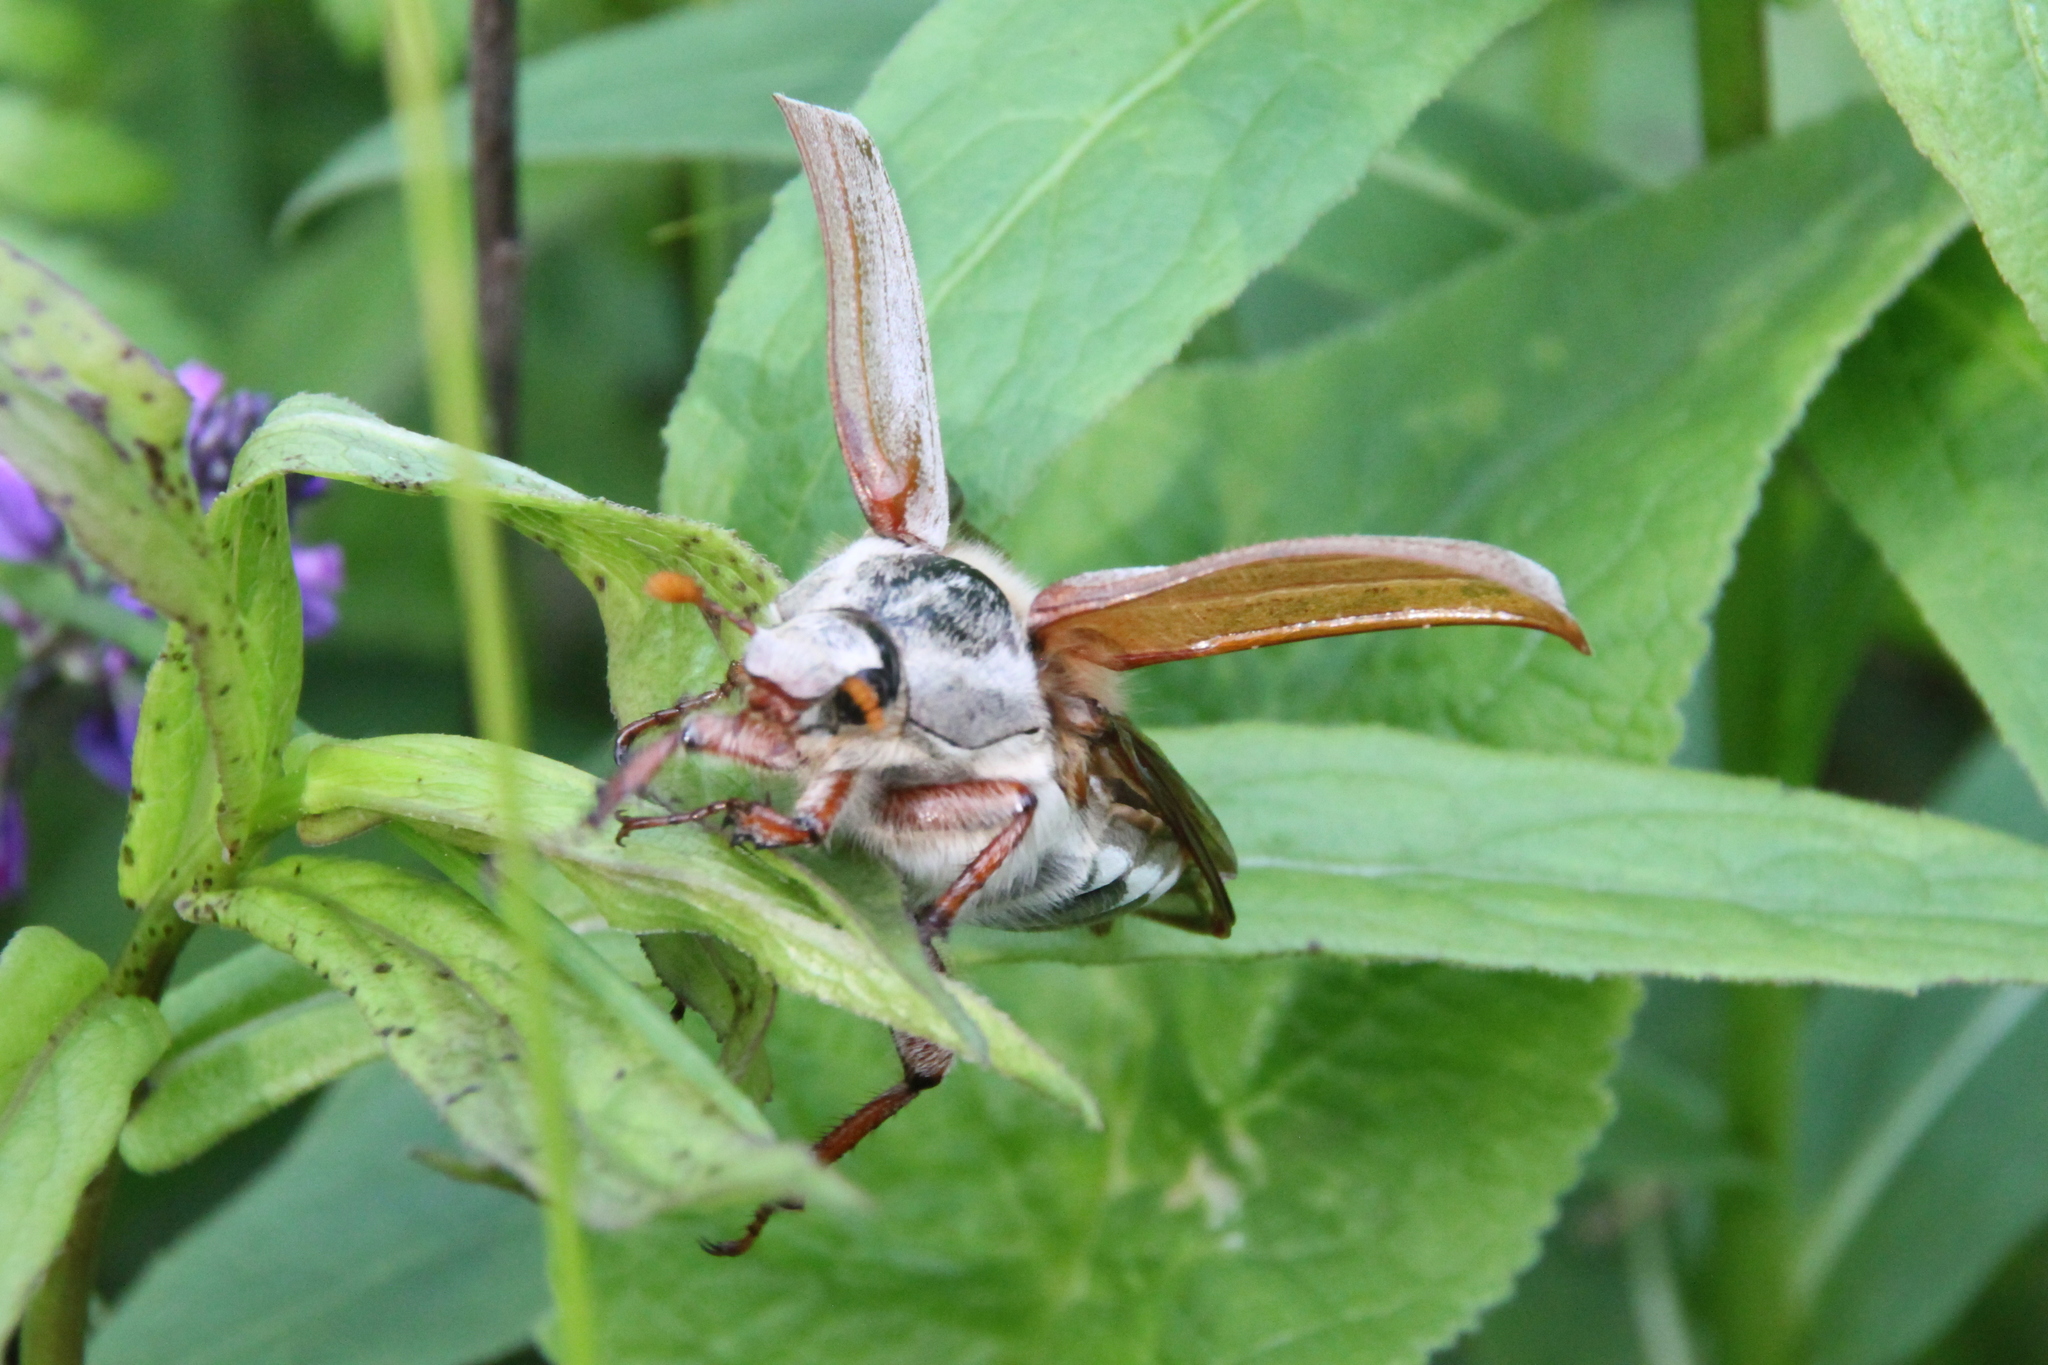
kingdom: Animalia
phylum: Arthropoda
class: Insecta
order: Coleoptera
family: Scarabaeidae
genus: Melolontha
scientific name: Melolontha melolontha
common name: Cockchafer maybeetle
